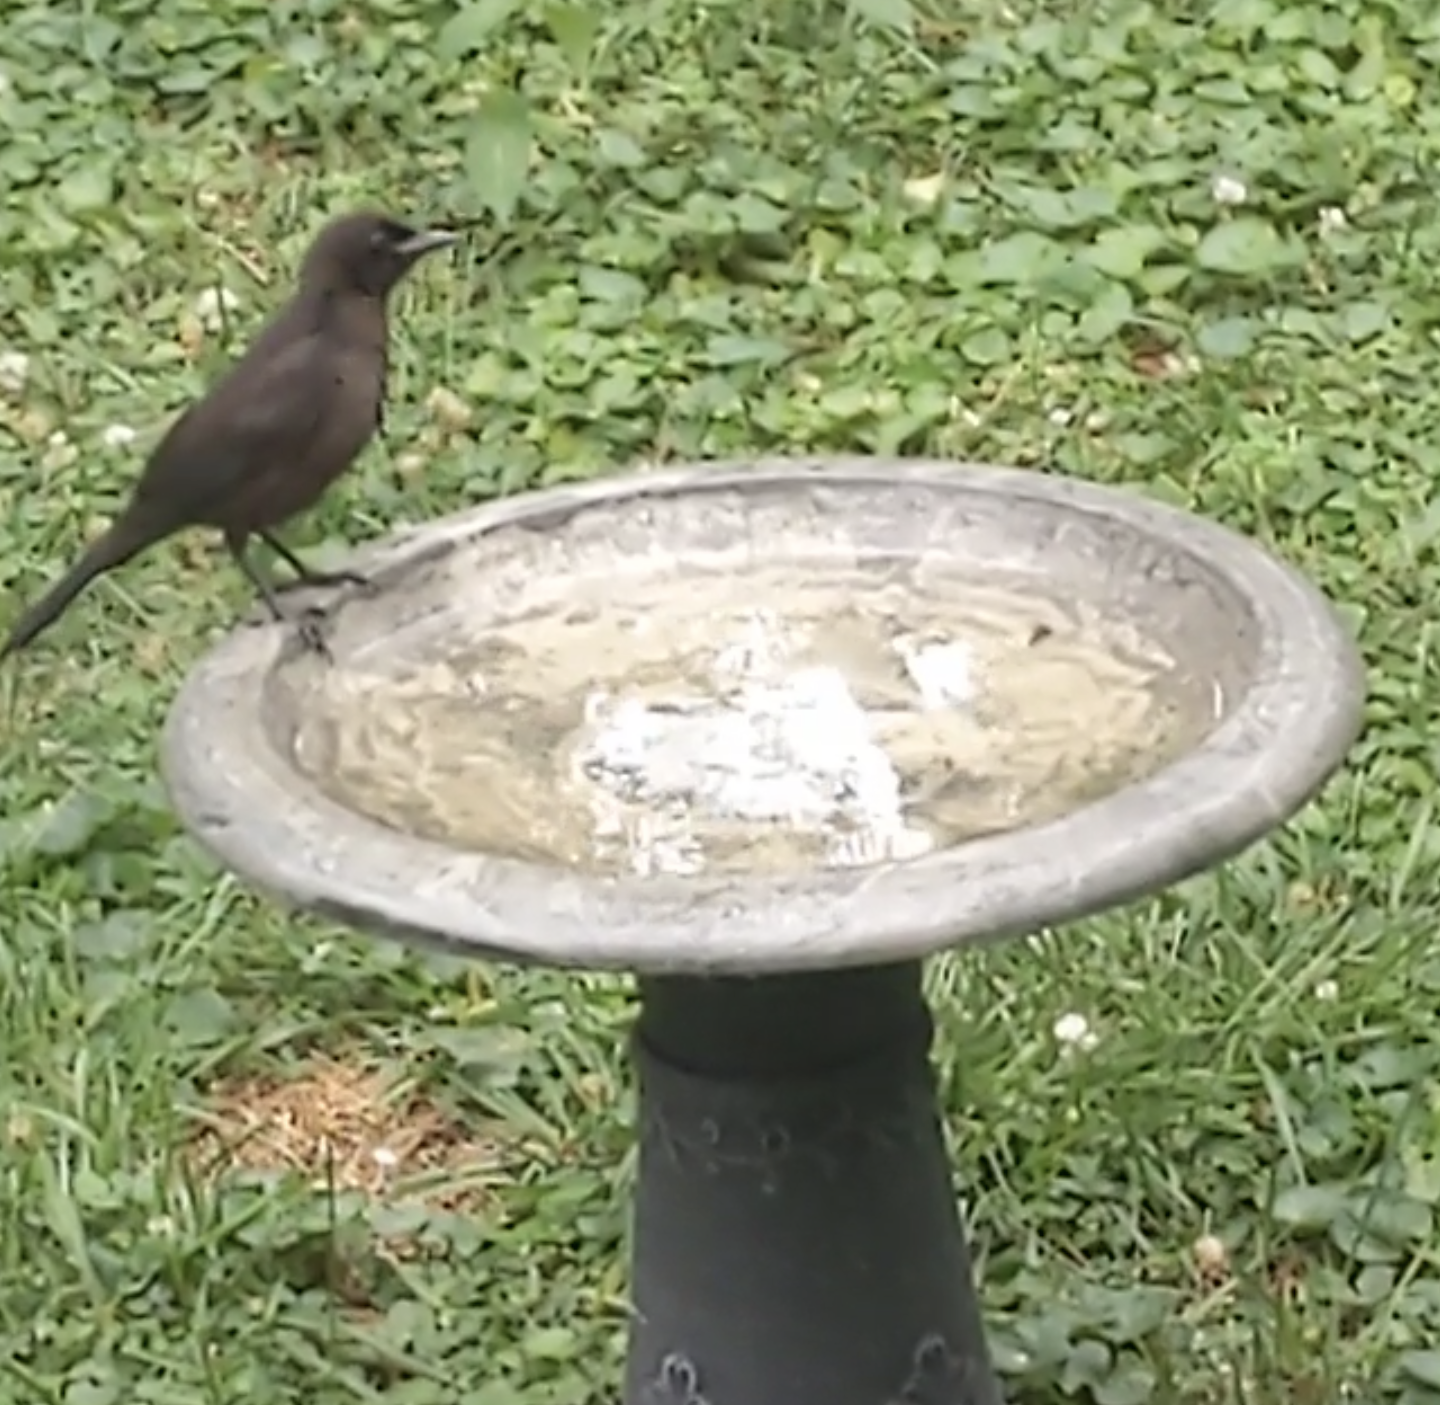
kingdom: Animalia
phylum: Chordata
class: Aves
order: Passeriformes
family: Icteridae
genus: Quiscalus
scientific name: Quiscalus quiscula
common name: Common grackle
